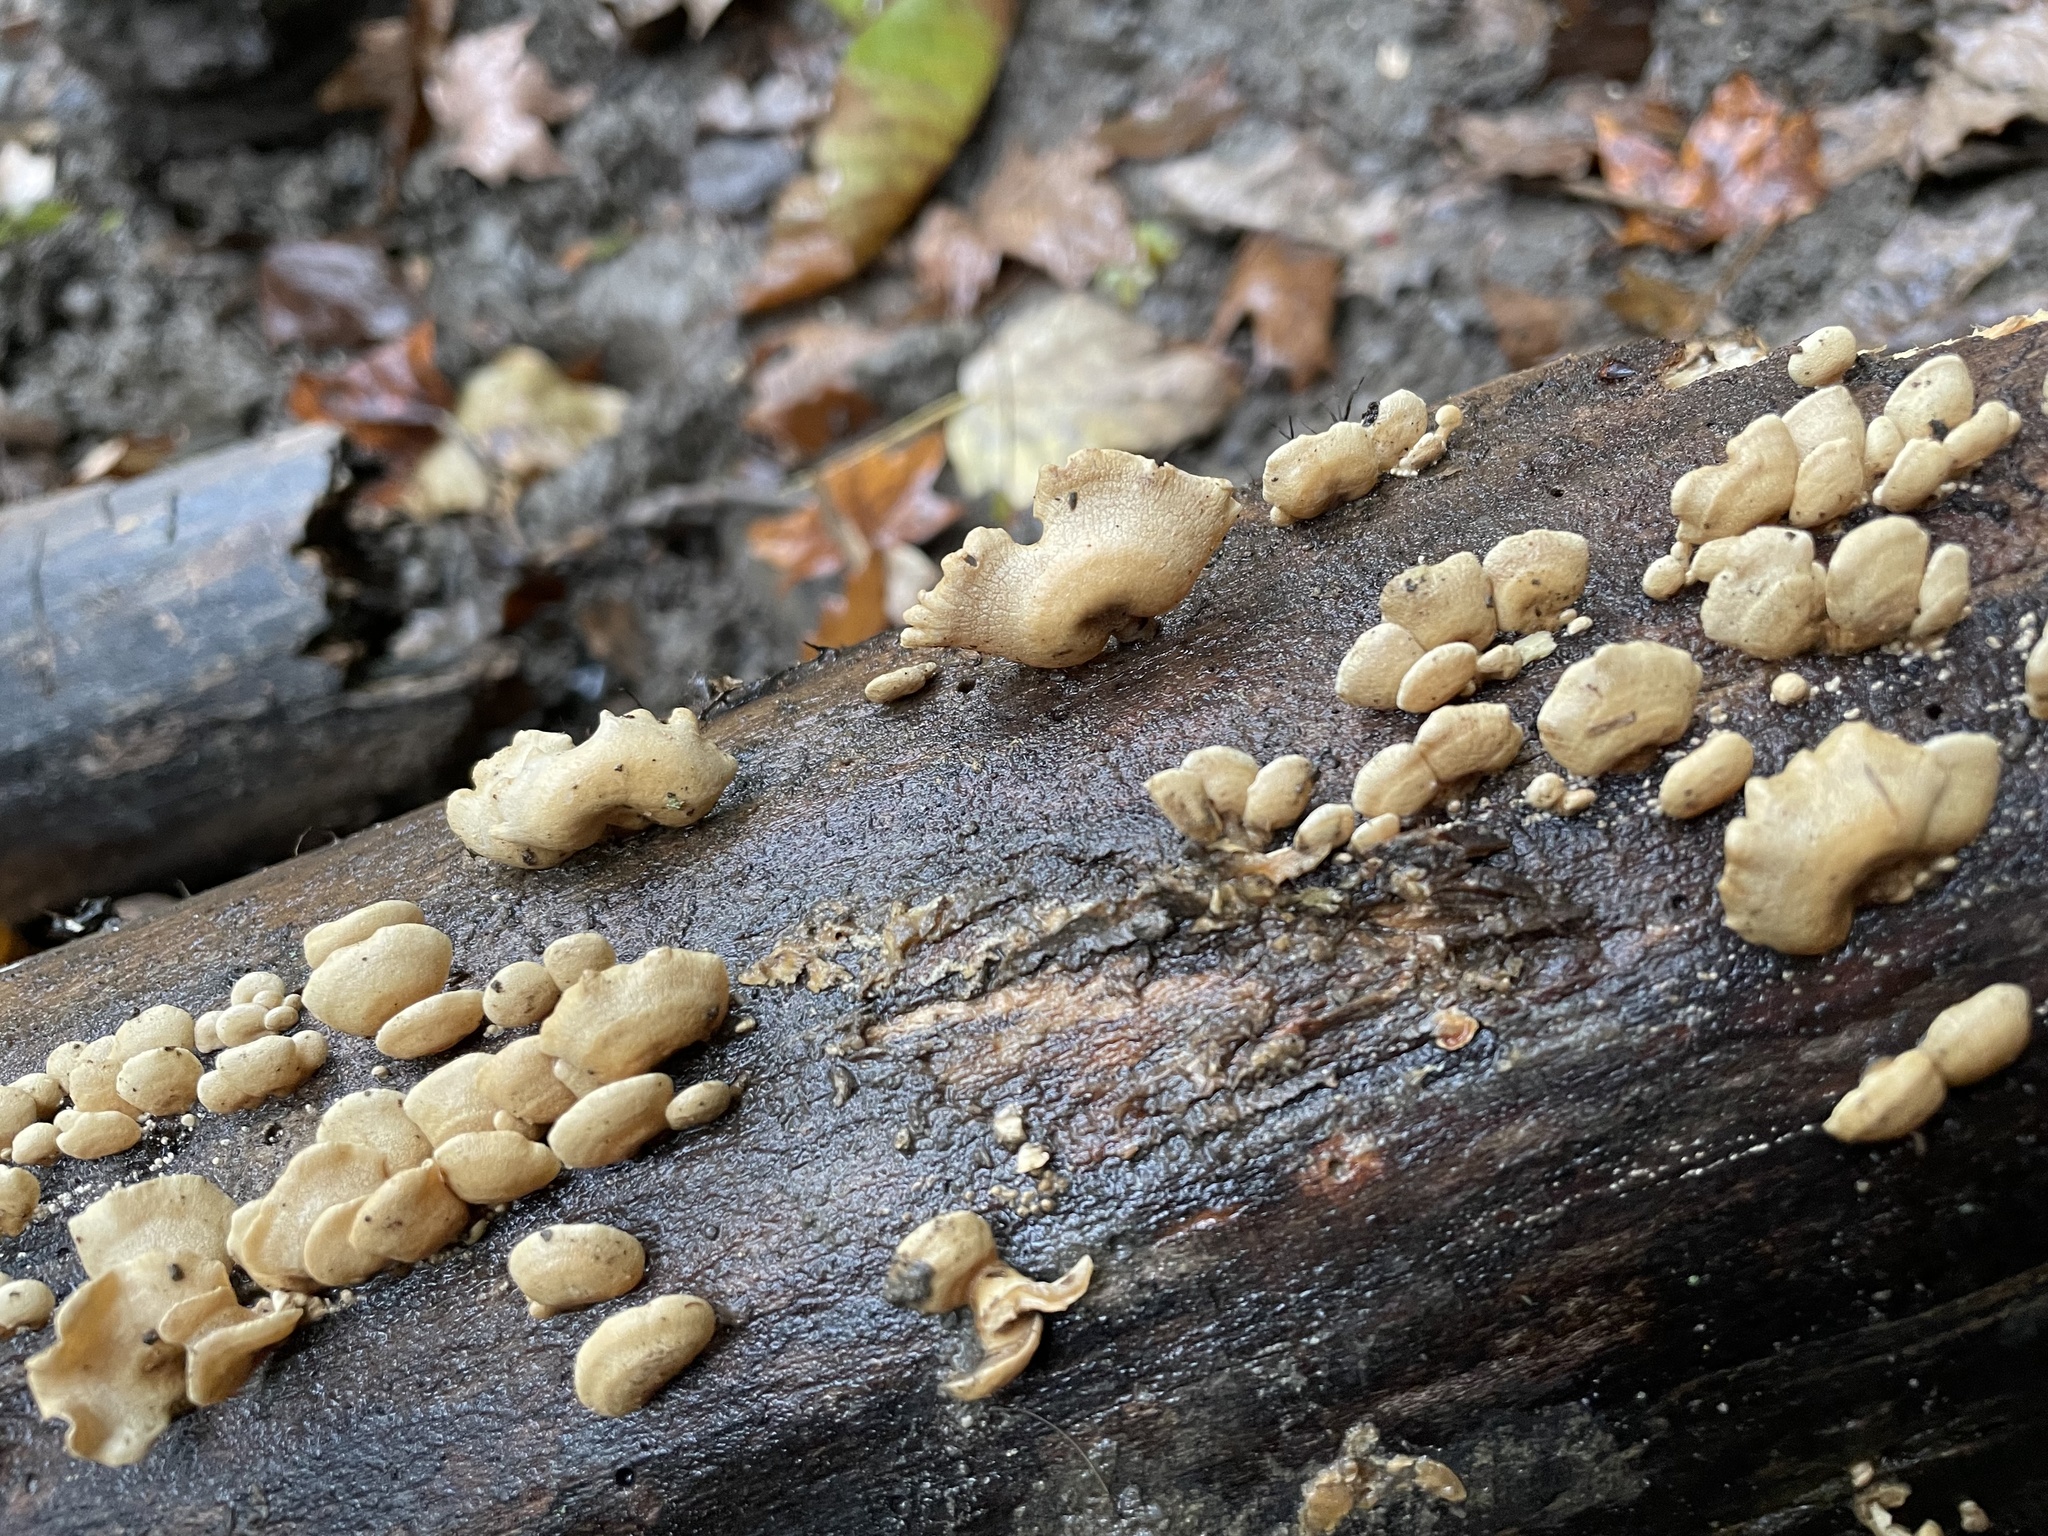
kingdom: Fungi
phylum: Basidiomycota
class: Agaricomycetes
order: Agaricales
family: Mycenaceae
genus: Panellus
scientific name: Panellus stipticus
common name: Bitter oysterling
